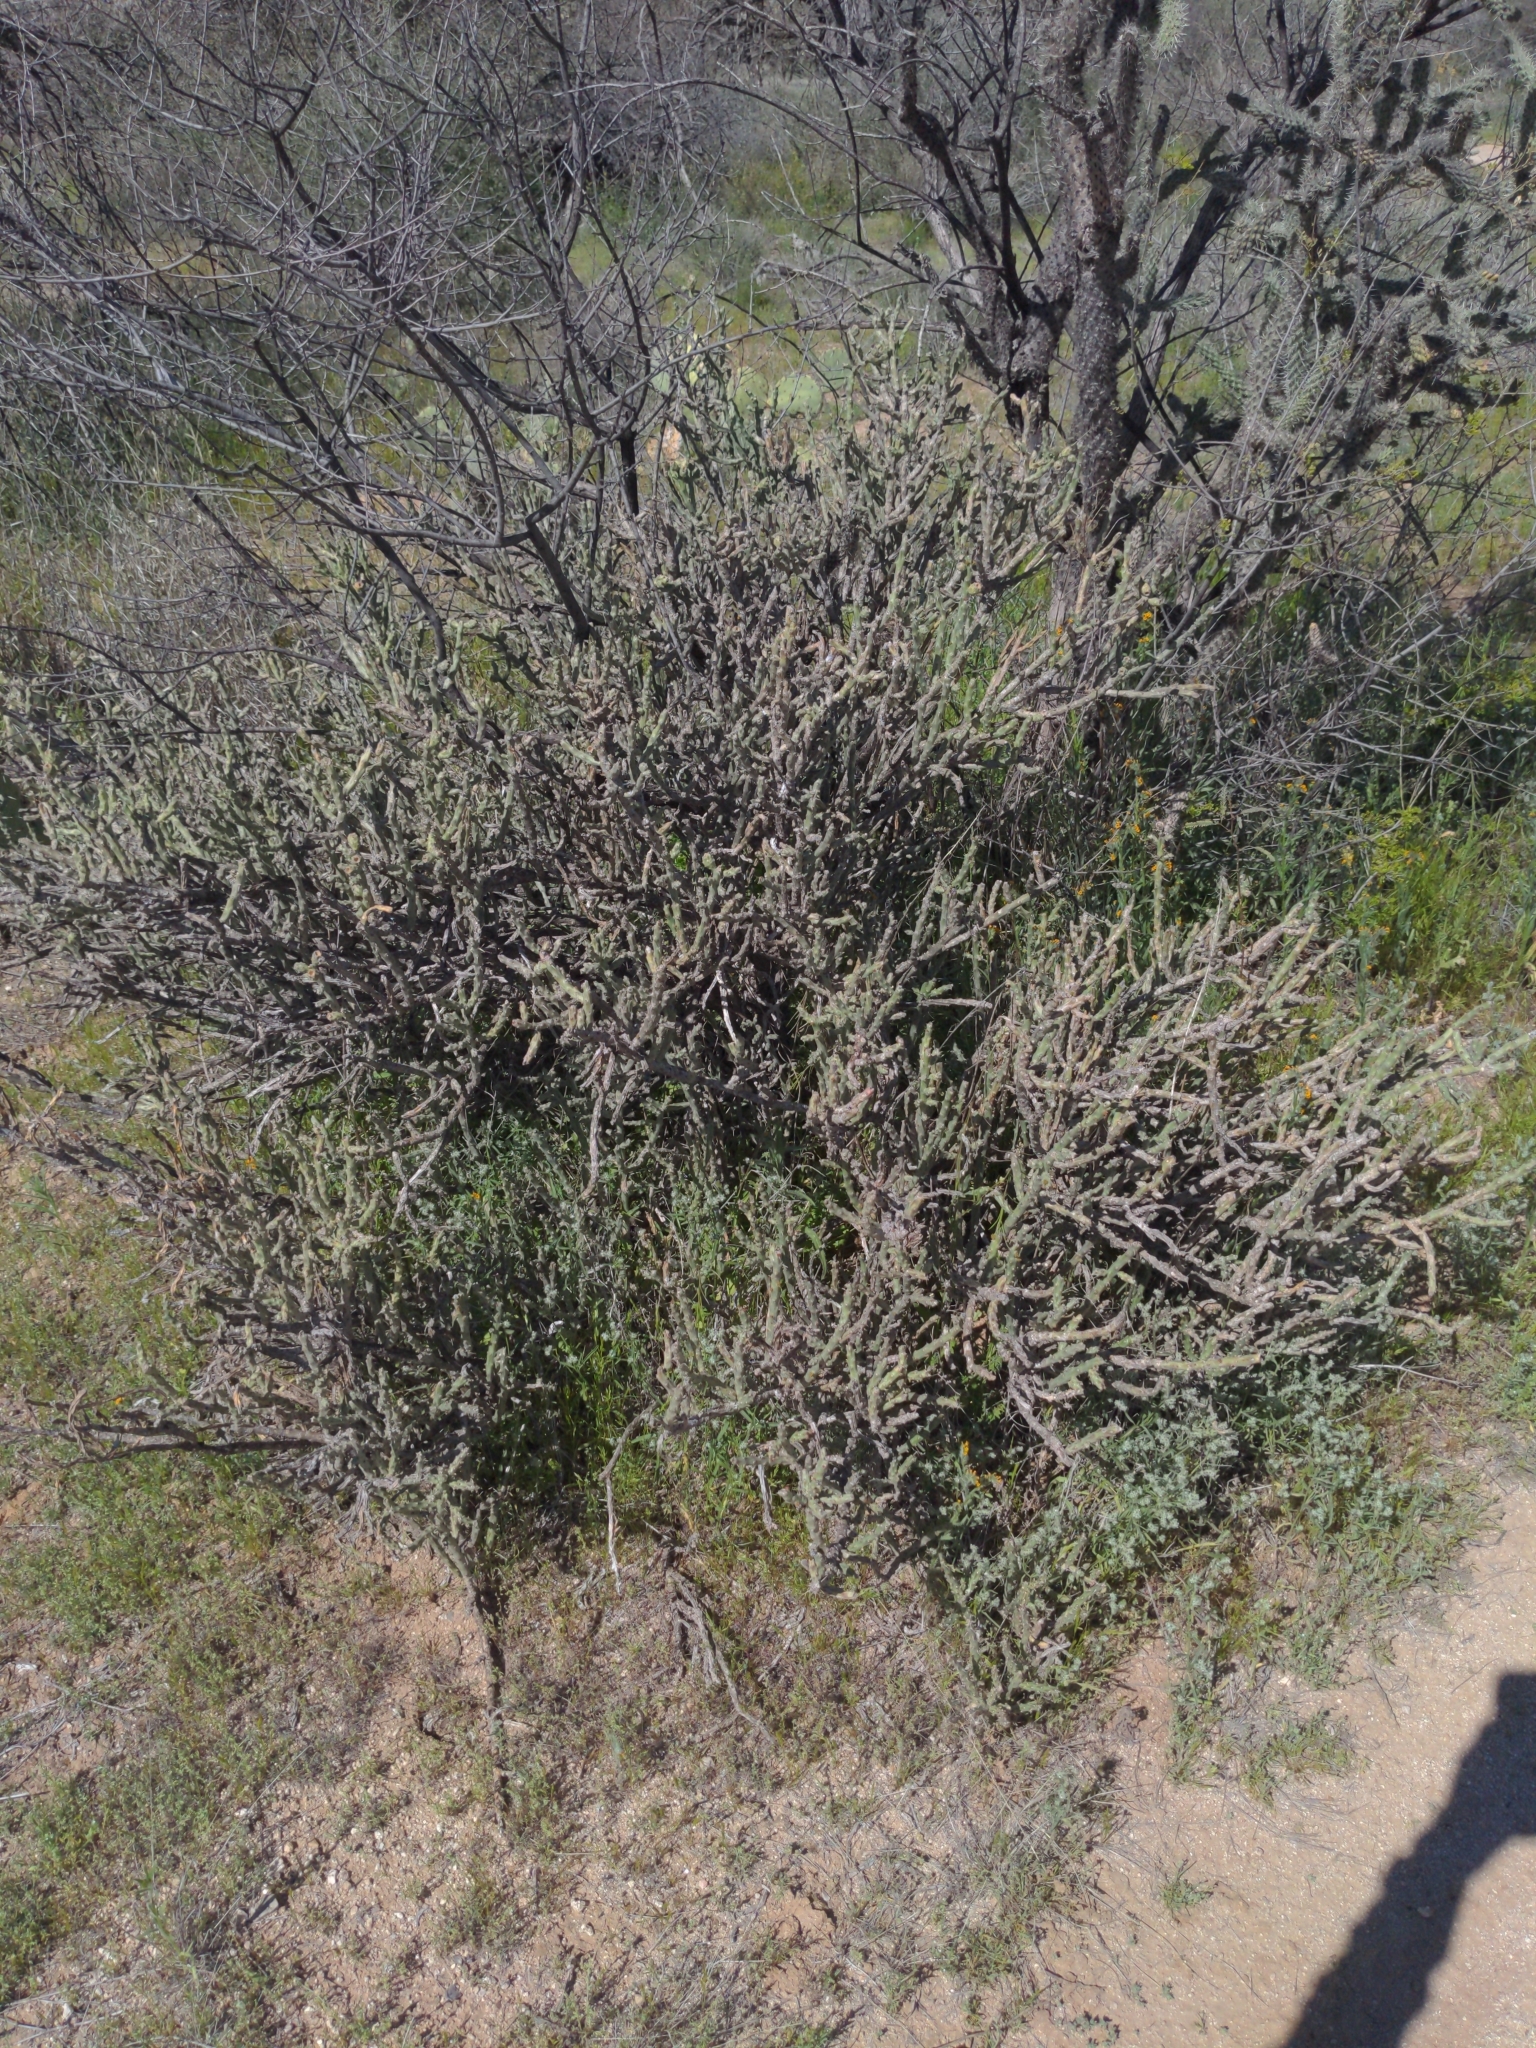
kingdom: Plantae
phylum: Tracheophyta
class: Magnoliopsida
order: Caryophyllales
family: Cactaceae
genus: Cylindropuntia
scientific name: Cylindropuntia leptocaulis
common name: Christmas cactus
